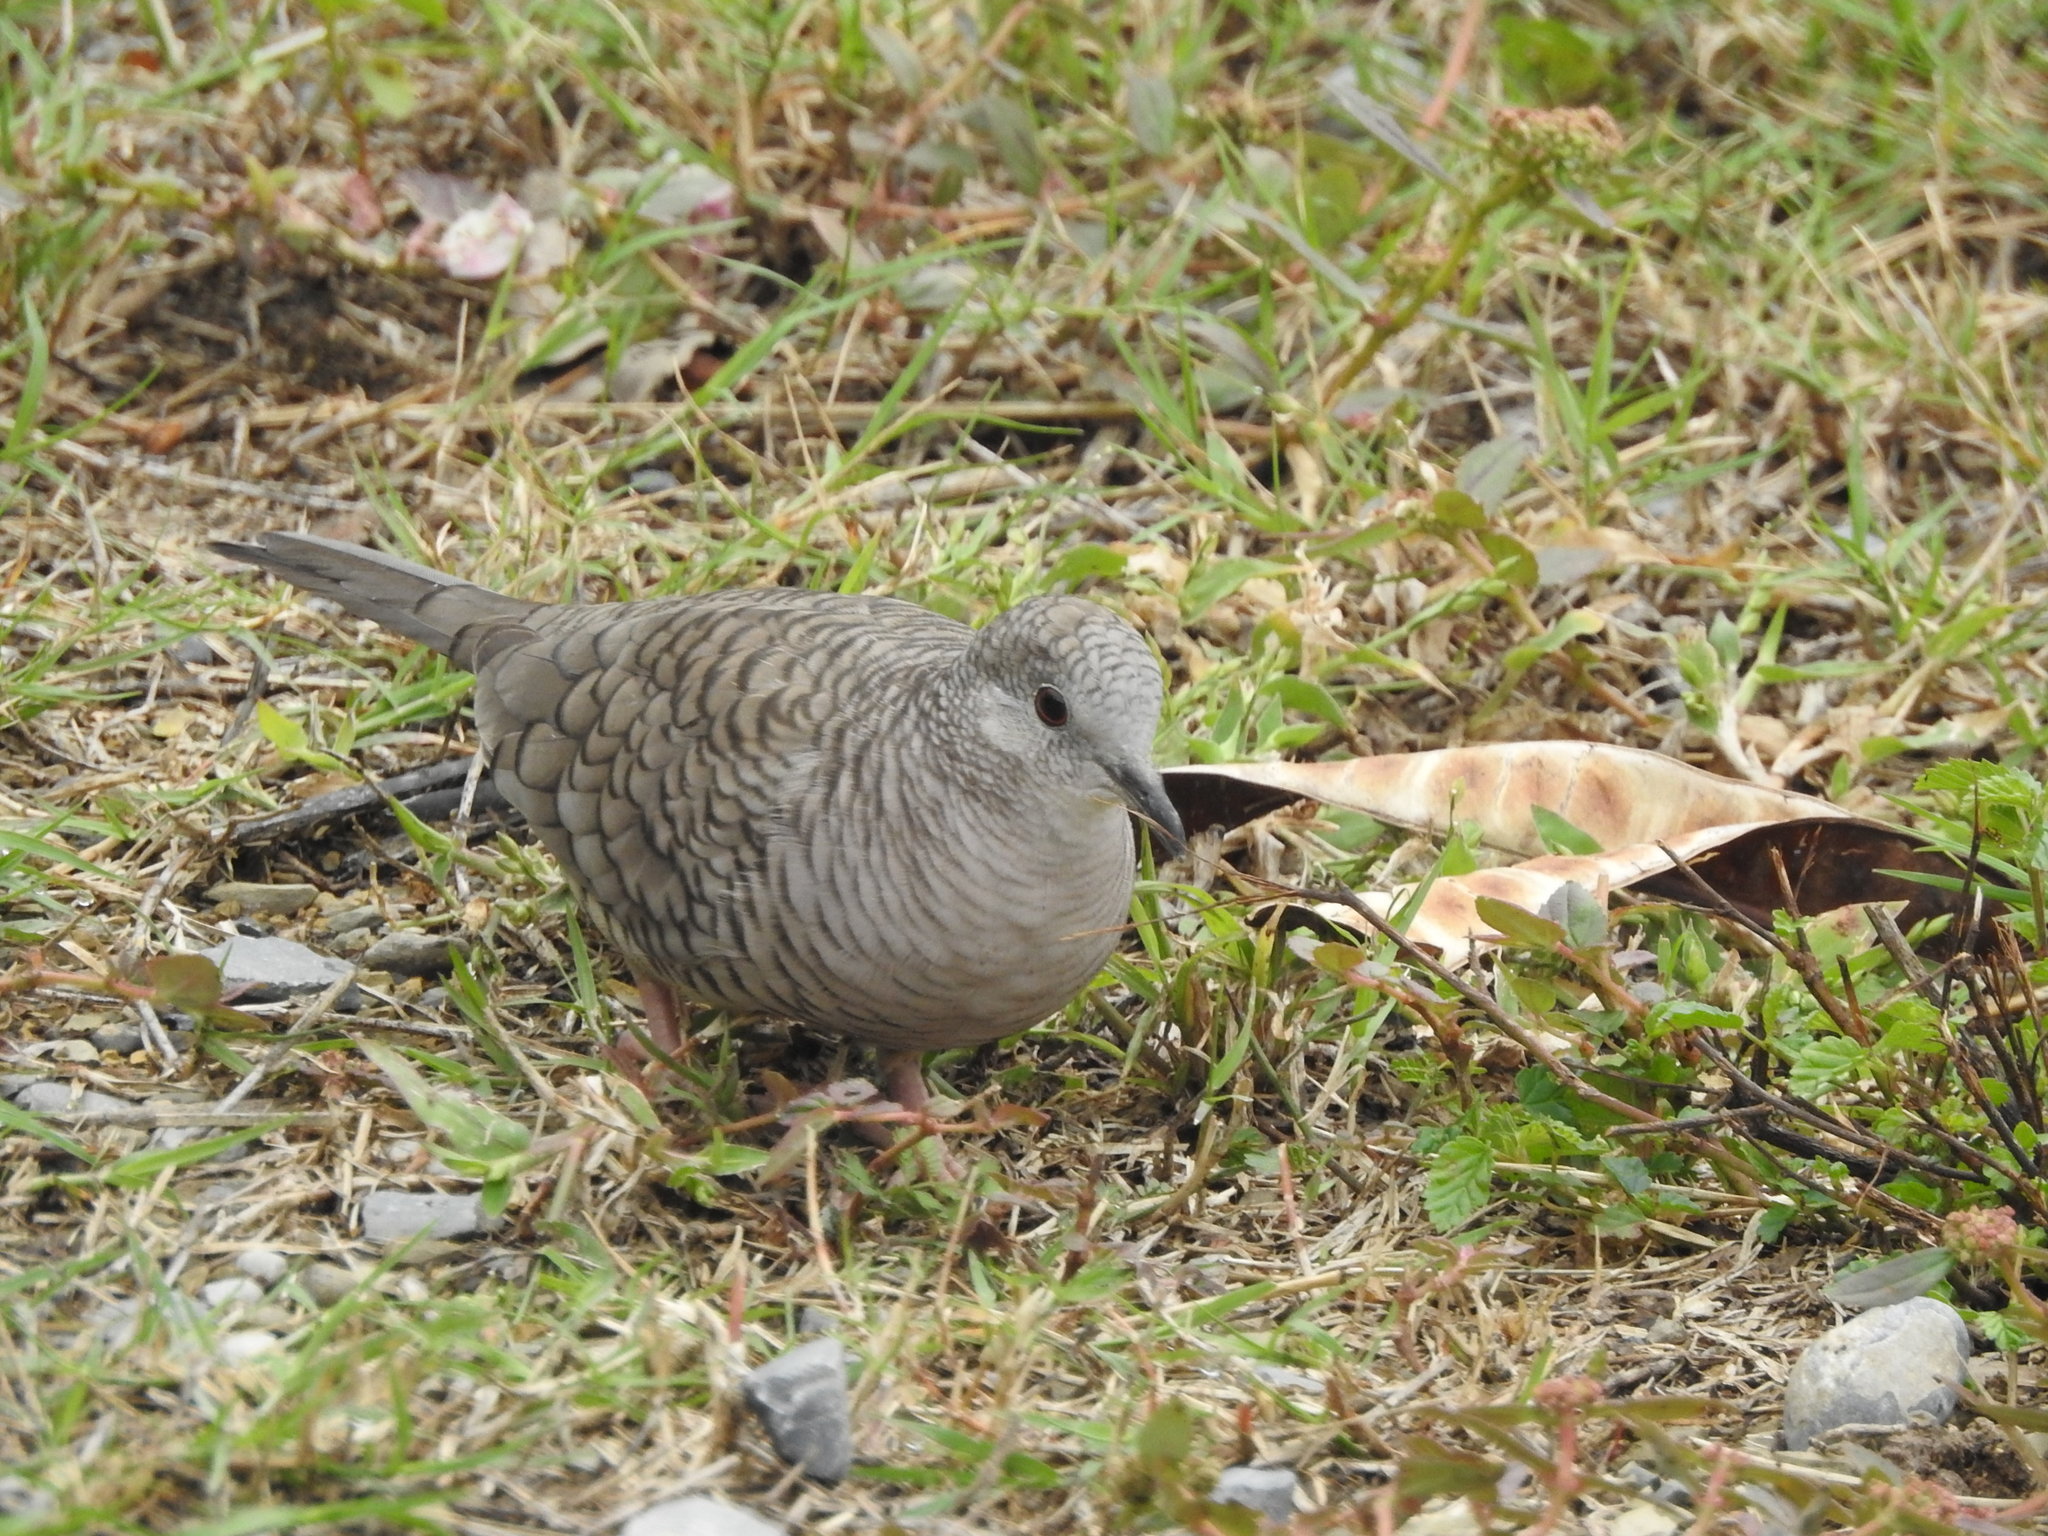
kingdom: Animalia
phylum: Chordata
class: Aves
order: Columbiformes
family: Columbidae
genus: Columbina
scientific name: Columbina inca
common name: Inca dove
